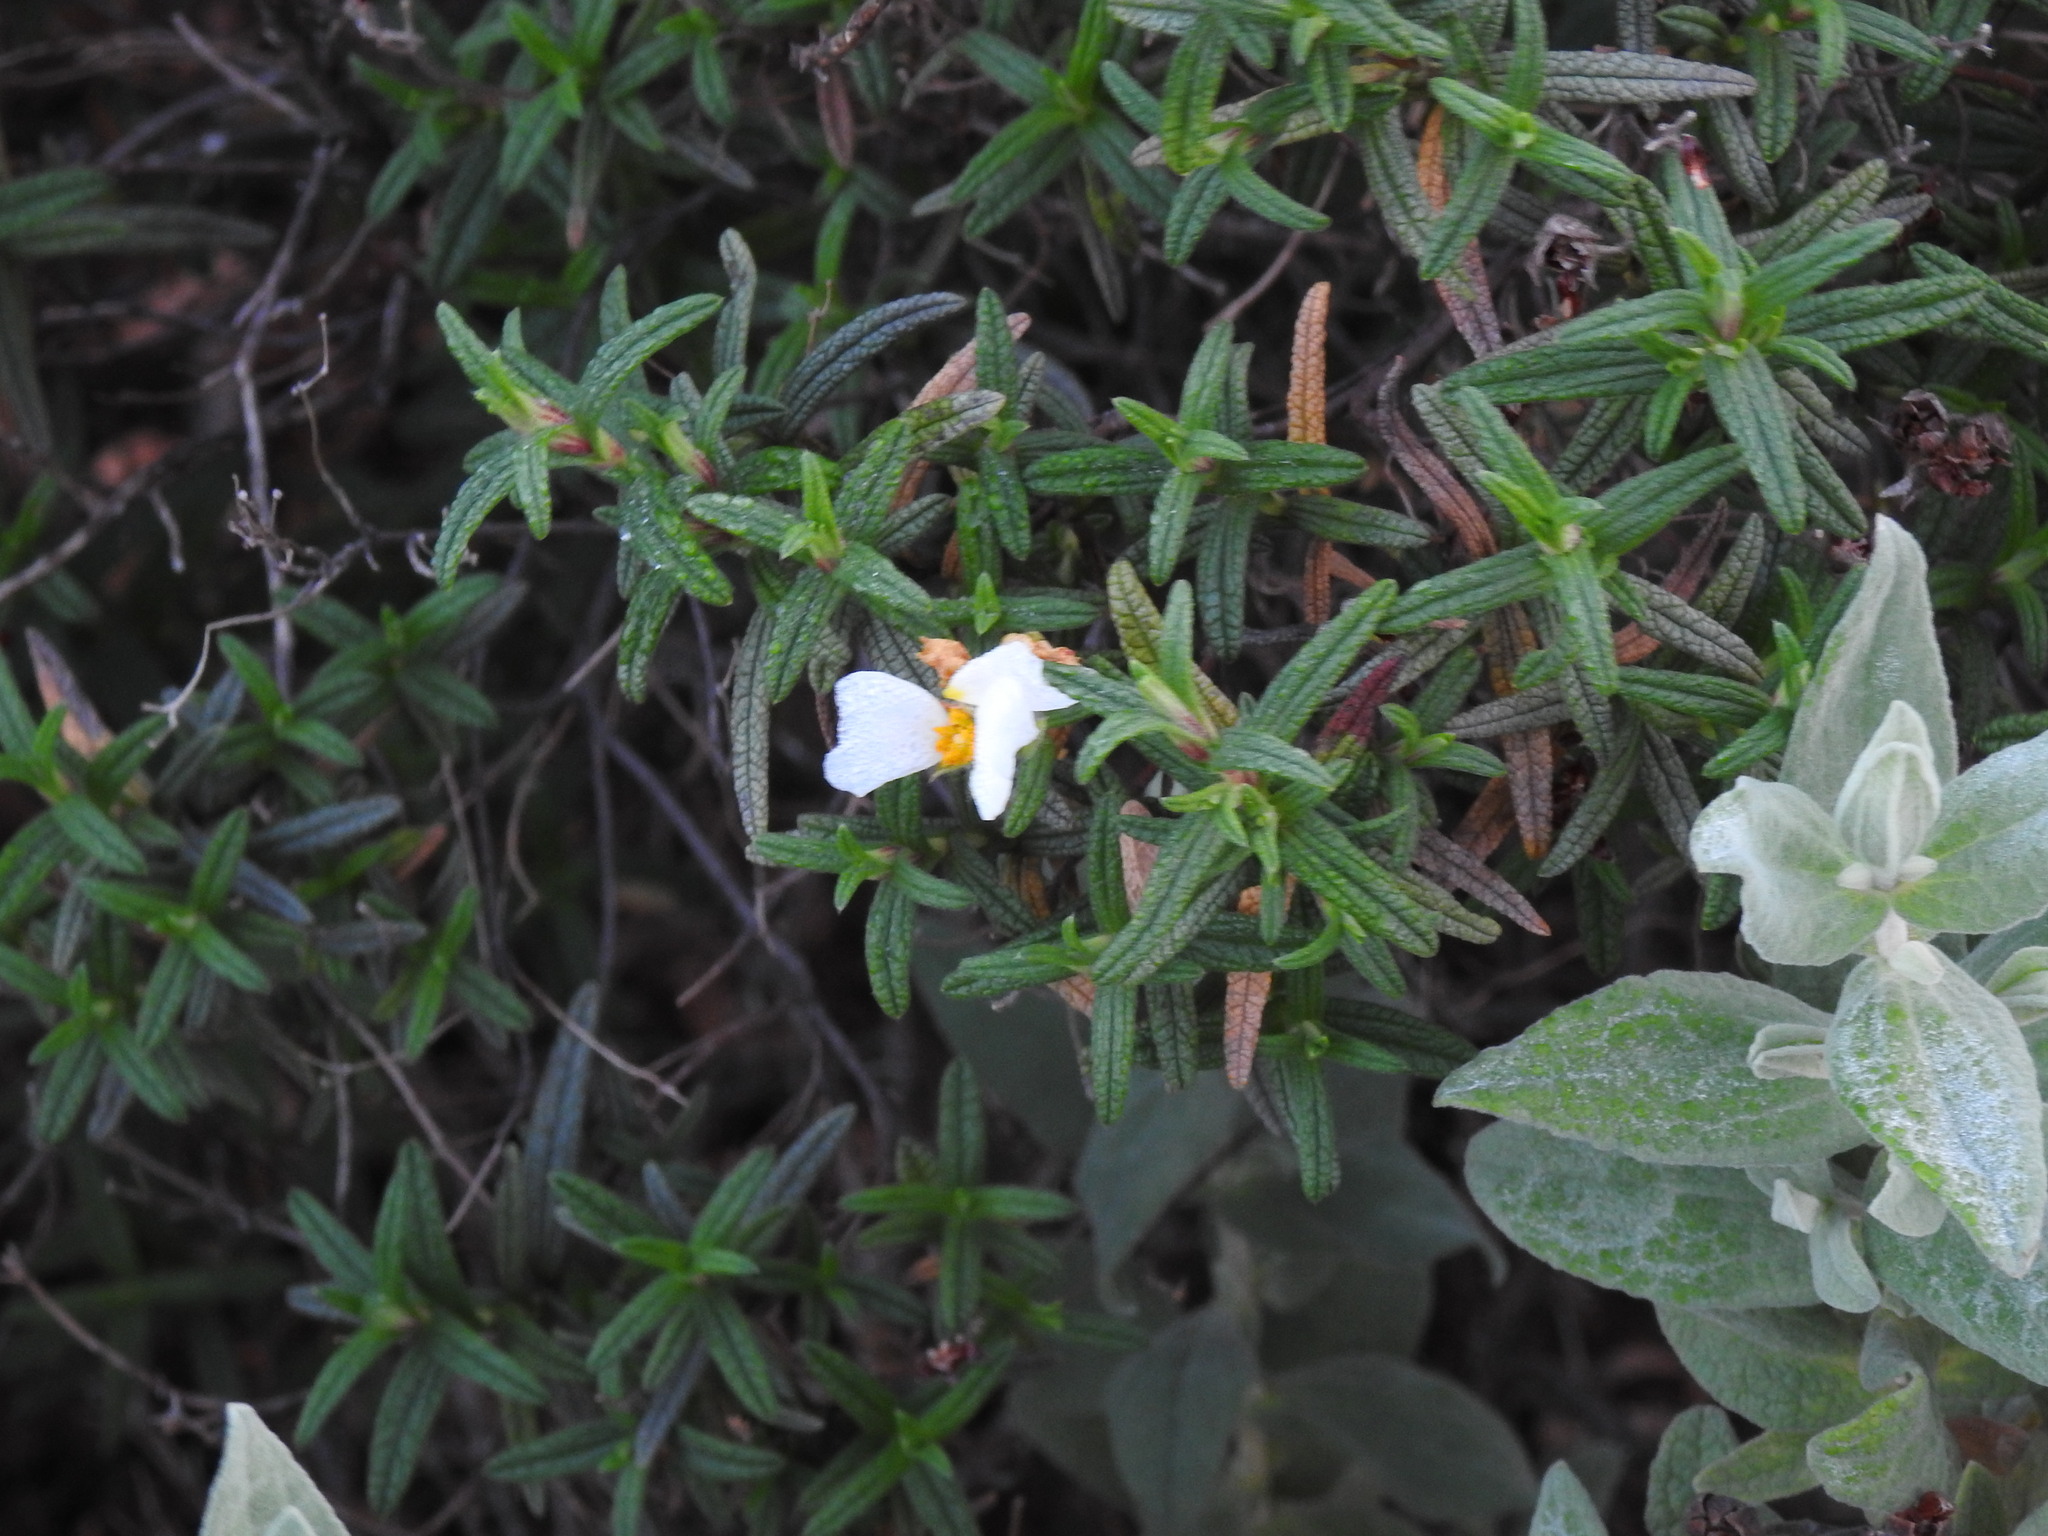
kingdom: Plantae
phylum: Tracheophyta
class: Magnoliopsida
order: Malvales
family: Cistaceae
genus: Cistus
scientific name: Cistus monspeliensis
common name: Montpelier cistus
